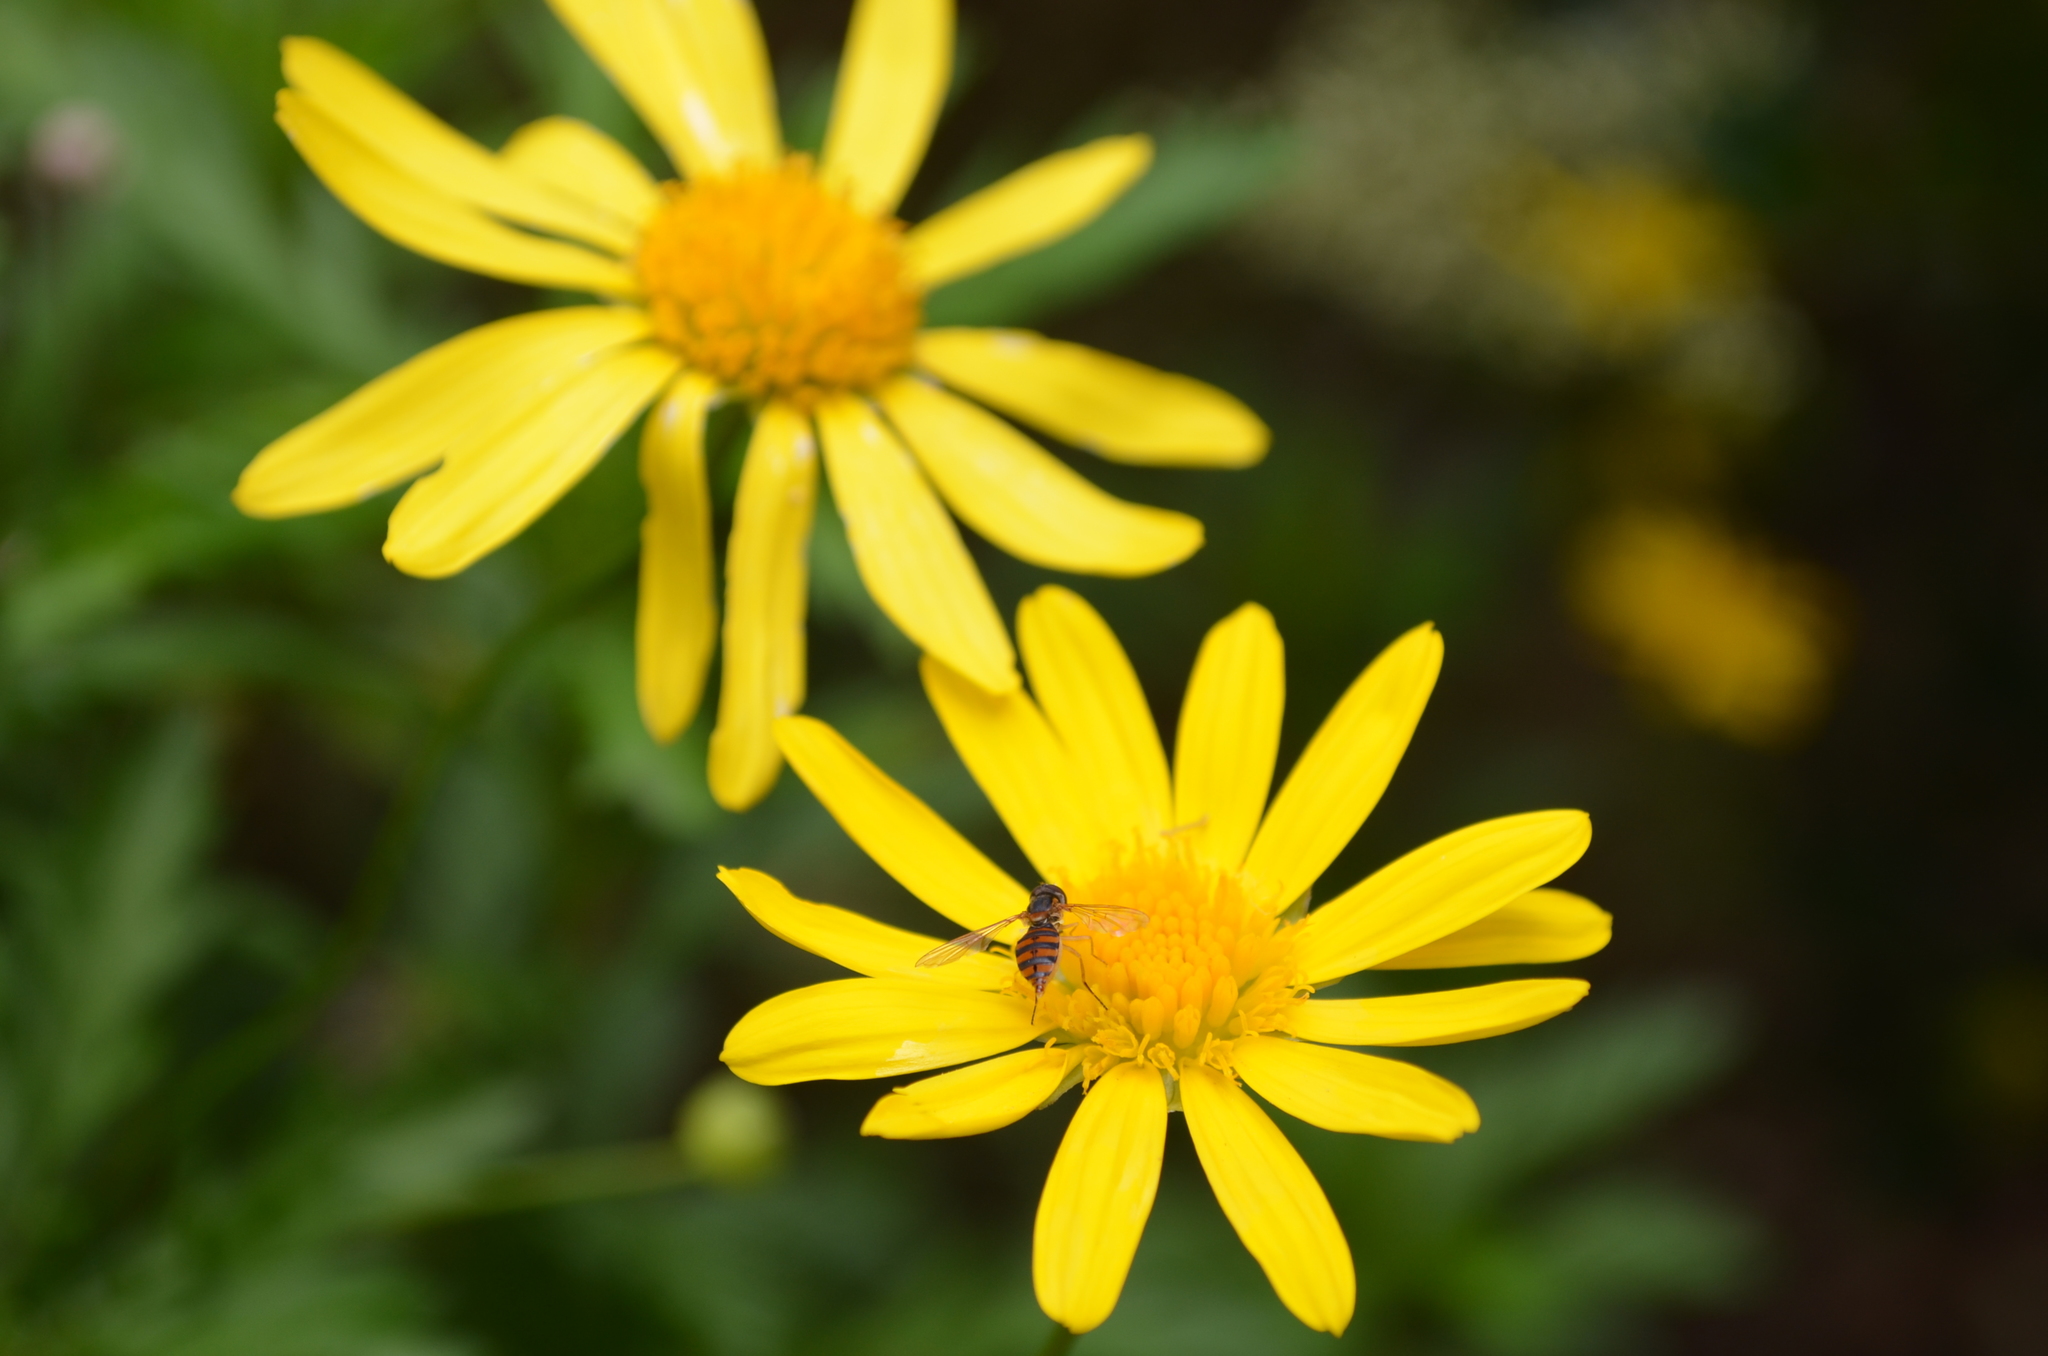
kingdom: Animalia
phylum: Arthropoda
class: Insecta
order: Diptera
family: Syrphidae
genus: Toxomerus
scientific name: Toxomerus
